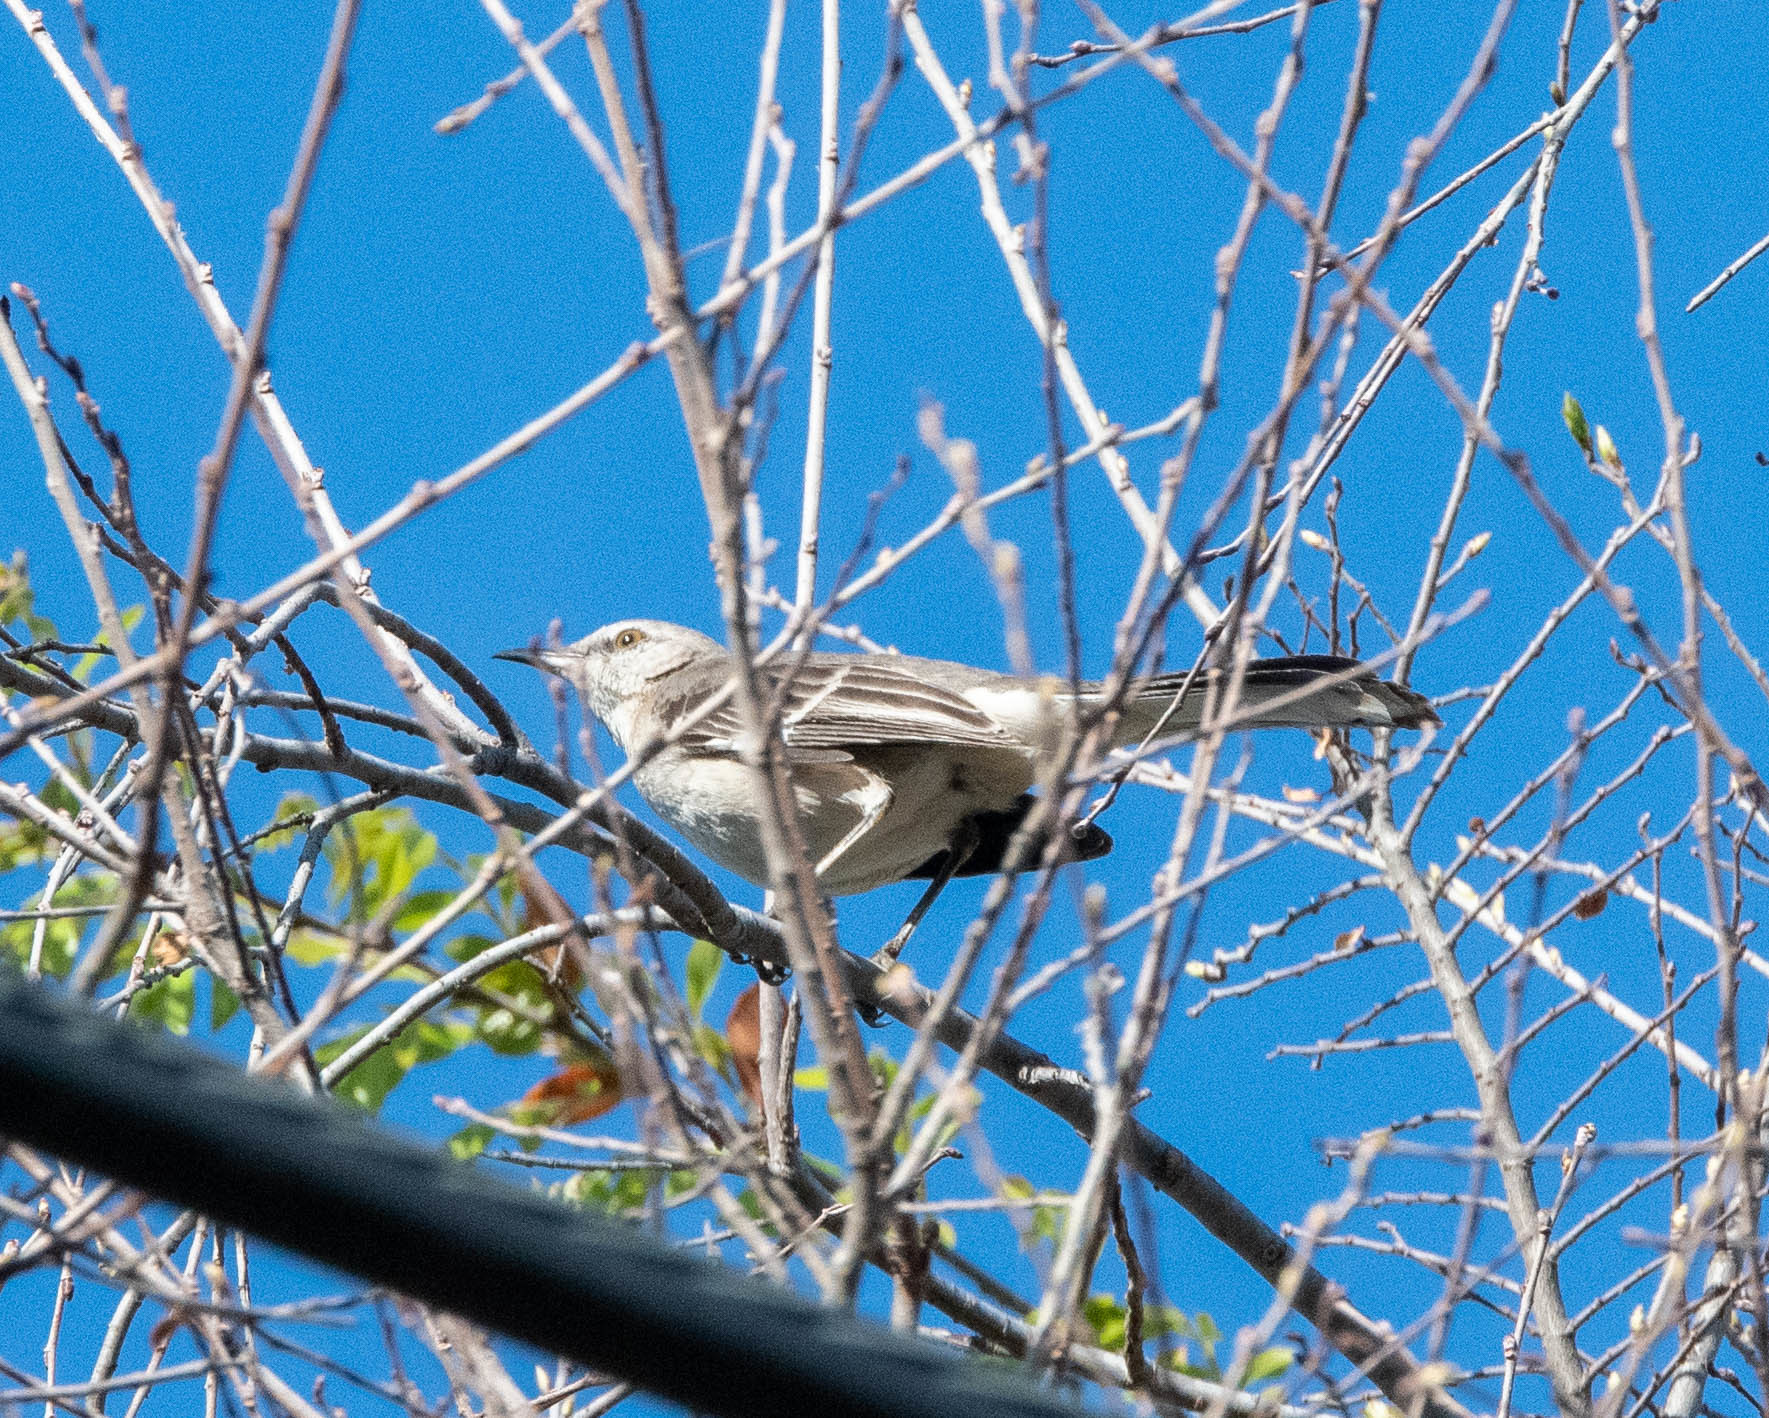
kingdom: Animalia
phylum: Chordata
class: Aves
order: Passeriformes
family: Mimidae
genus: Mimus
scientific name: Mimus polyglottos
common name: Northern mockingbird
